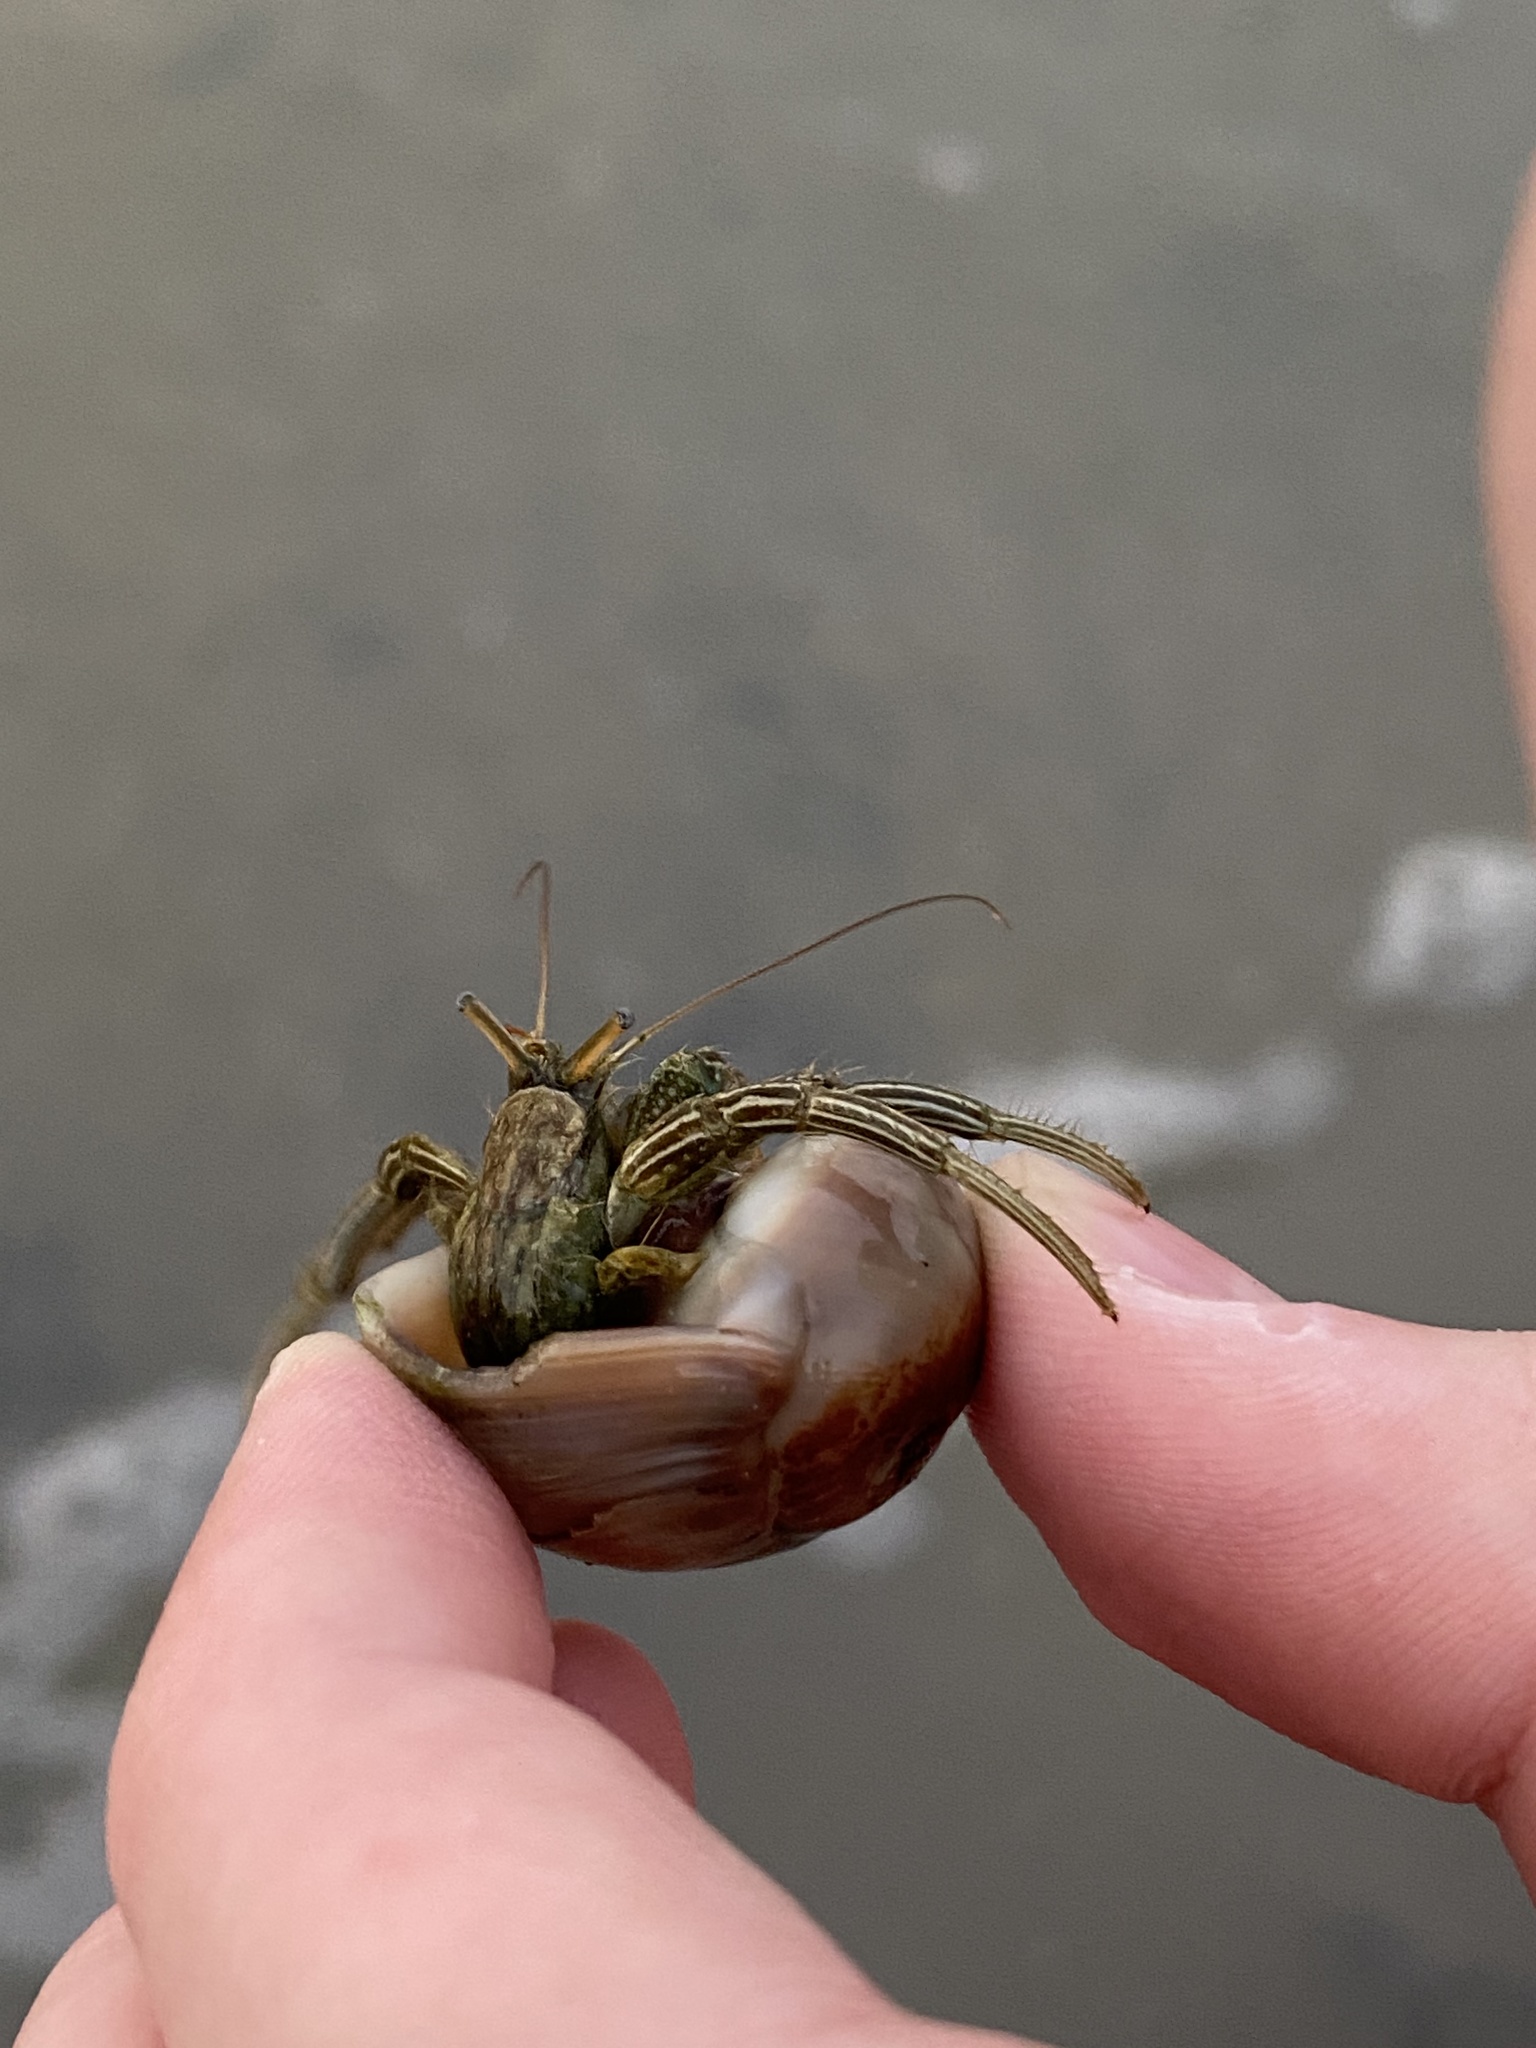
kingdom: Animalia
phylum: Arthropoda
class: Malacostraca
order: Decapoda
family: Diogenidae
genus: Clibanarius
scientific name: Clibanarius vittatus
